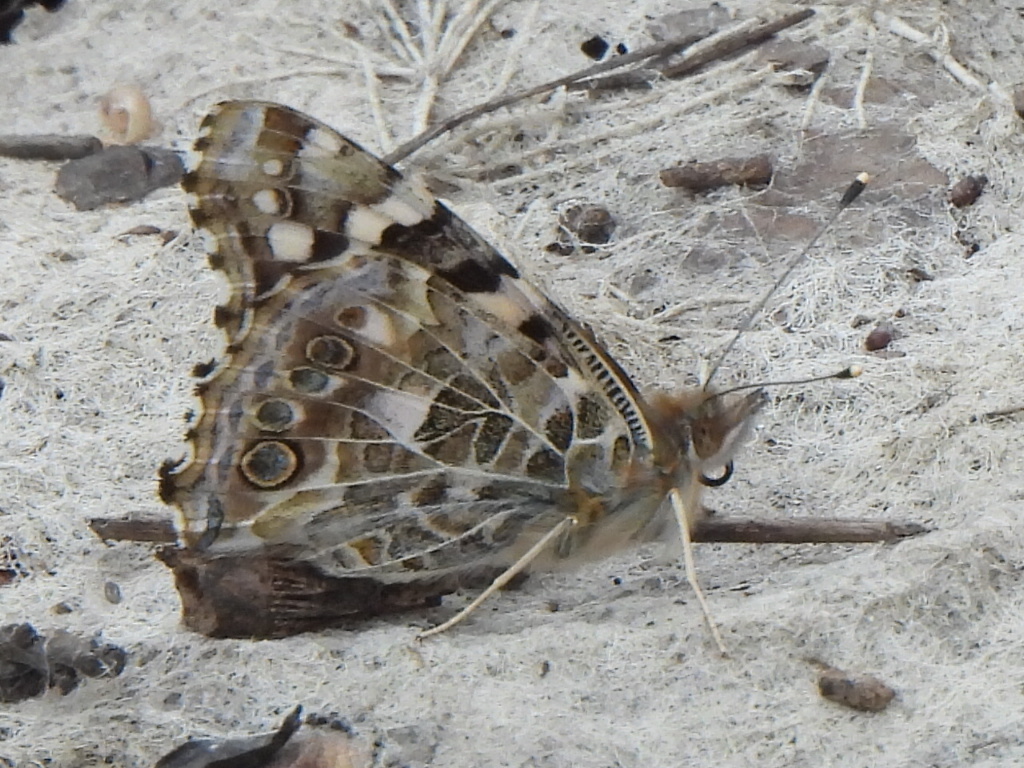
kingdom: Animalia
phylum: Arthropoda
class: Insecta
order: Lepidoptera
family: Nymphalidae
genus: Vanessa
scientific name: Vanessa cardui
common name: Painted lady
